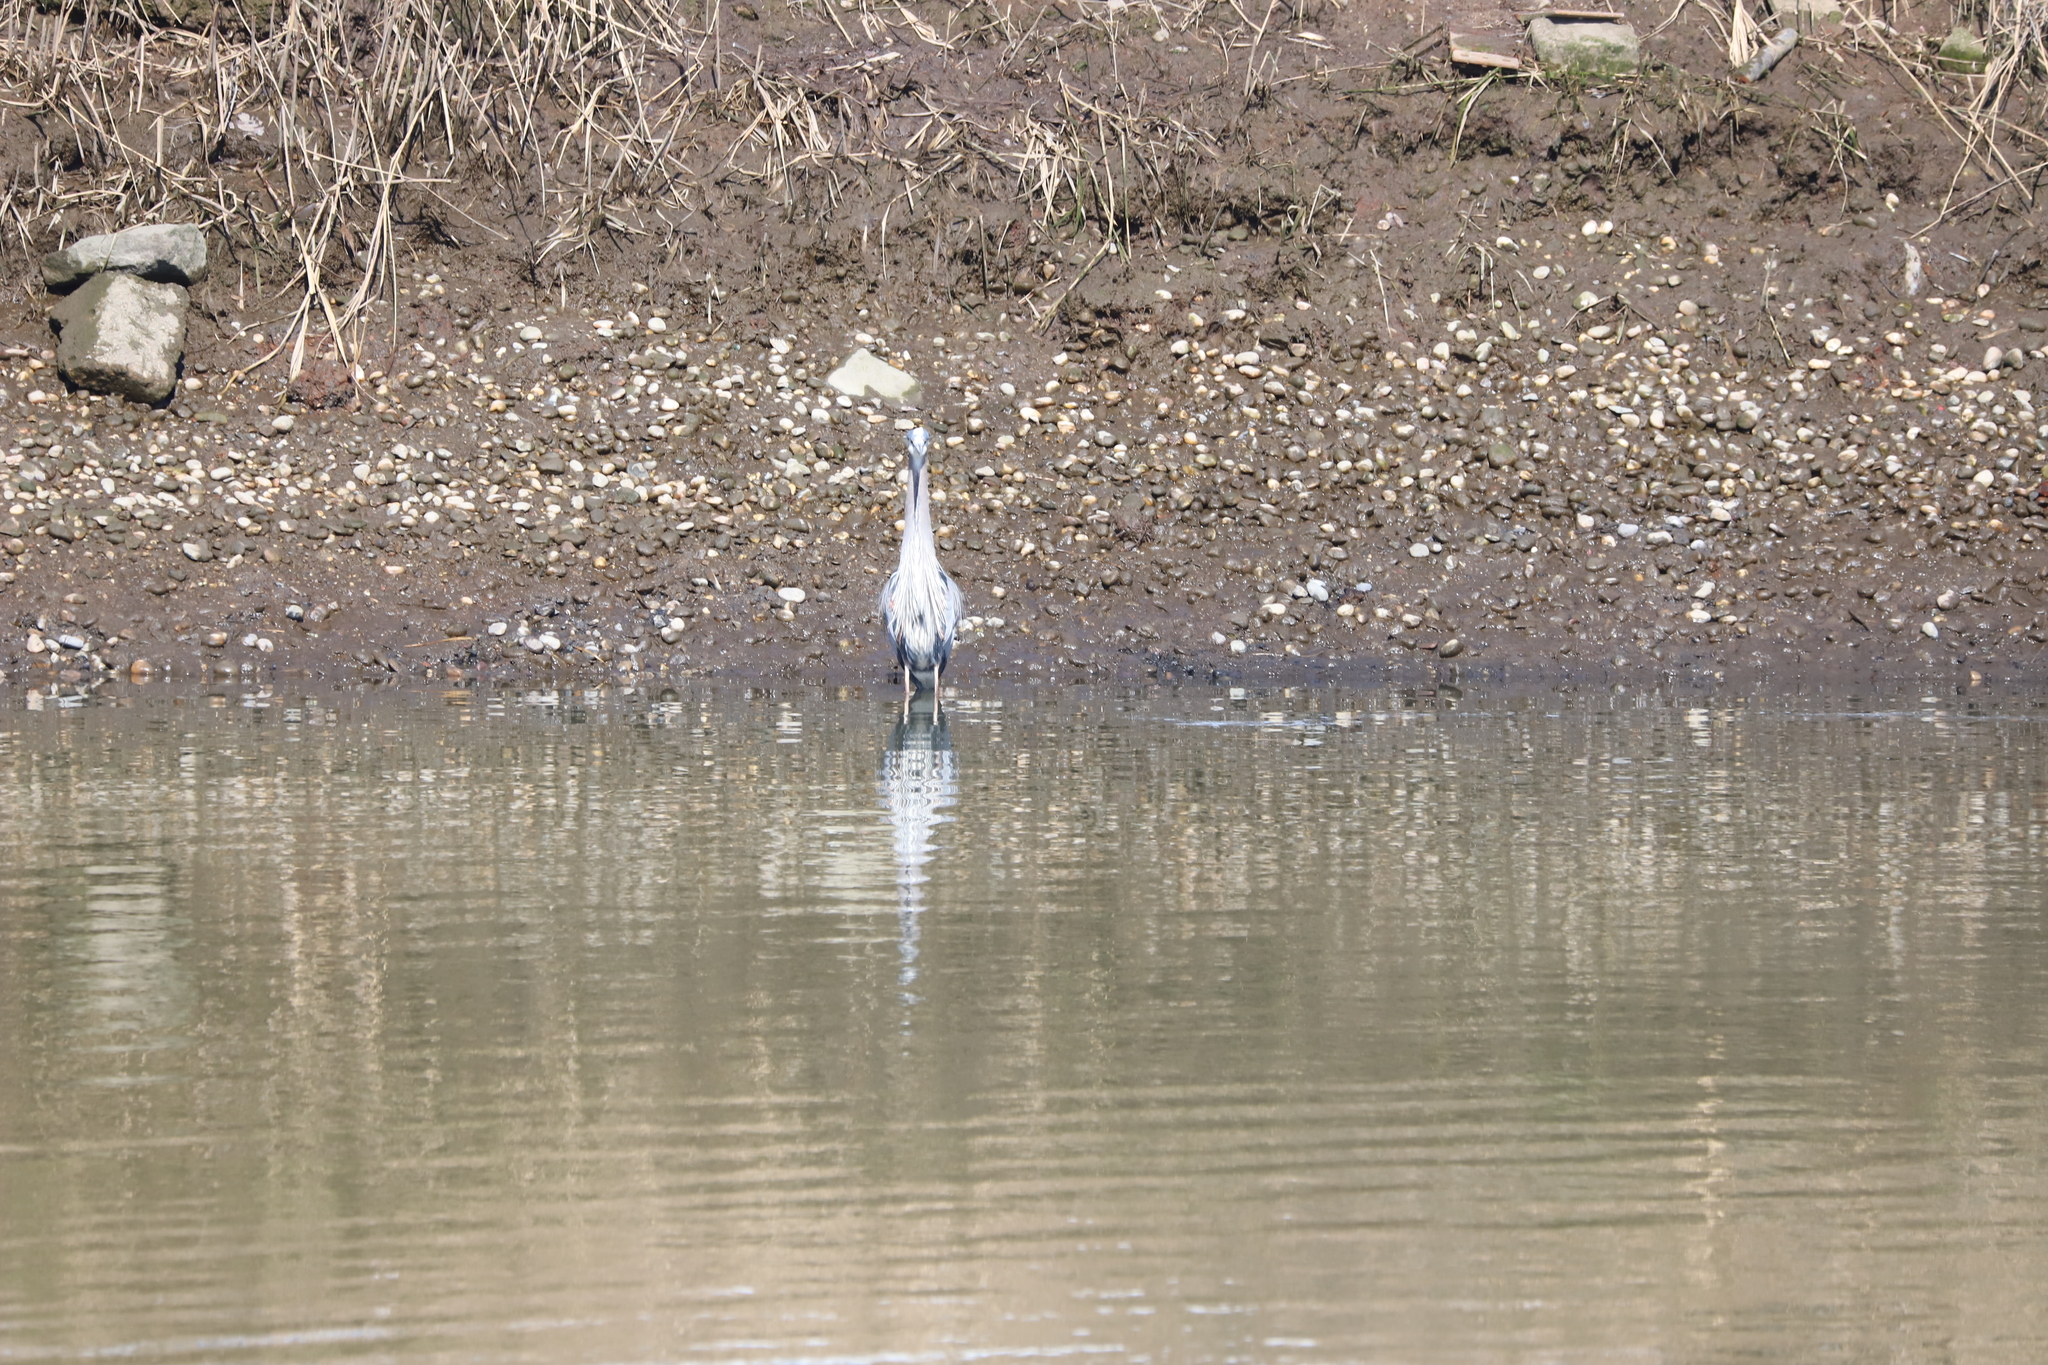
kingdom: Animalia
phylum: Chordata
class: Aves
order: Pelecaniformes
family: Ardeidae
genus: Ardea
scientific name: Ardea herodias
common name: Great blue heron
